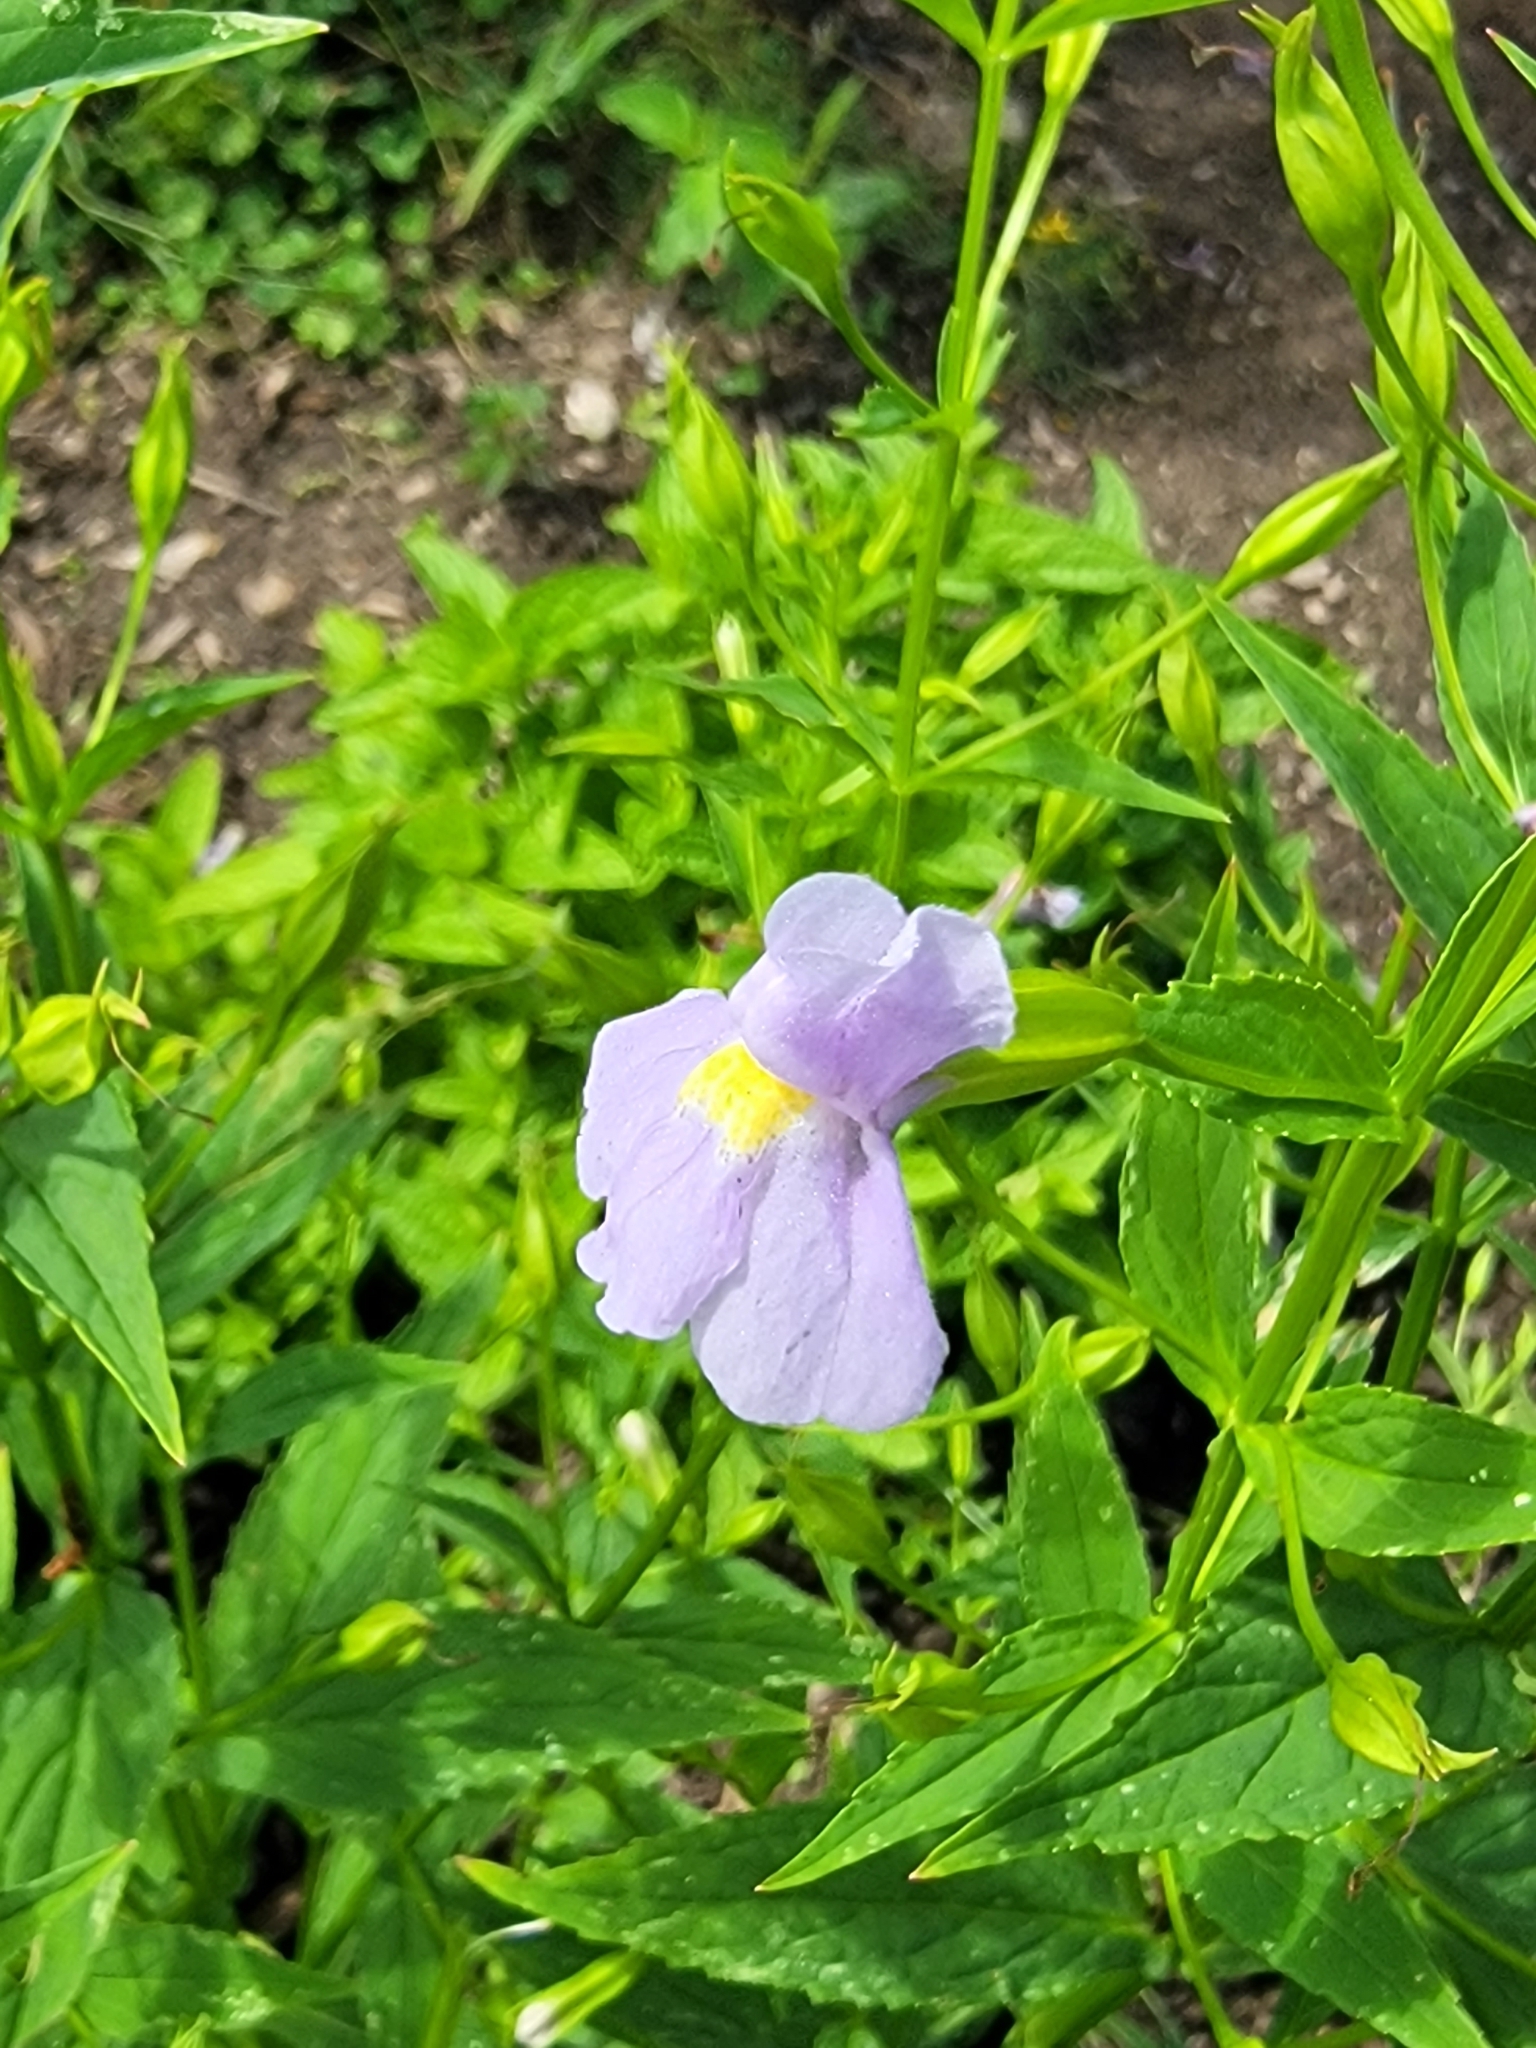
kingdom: Plantae
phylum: Tracheophyta
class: Magnoliopsida
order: Lamiales
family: Phrymaceae
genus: Mimulus
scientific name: Mimulus ringens
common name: Allegheny monkeyflower
